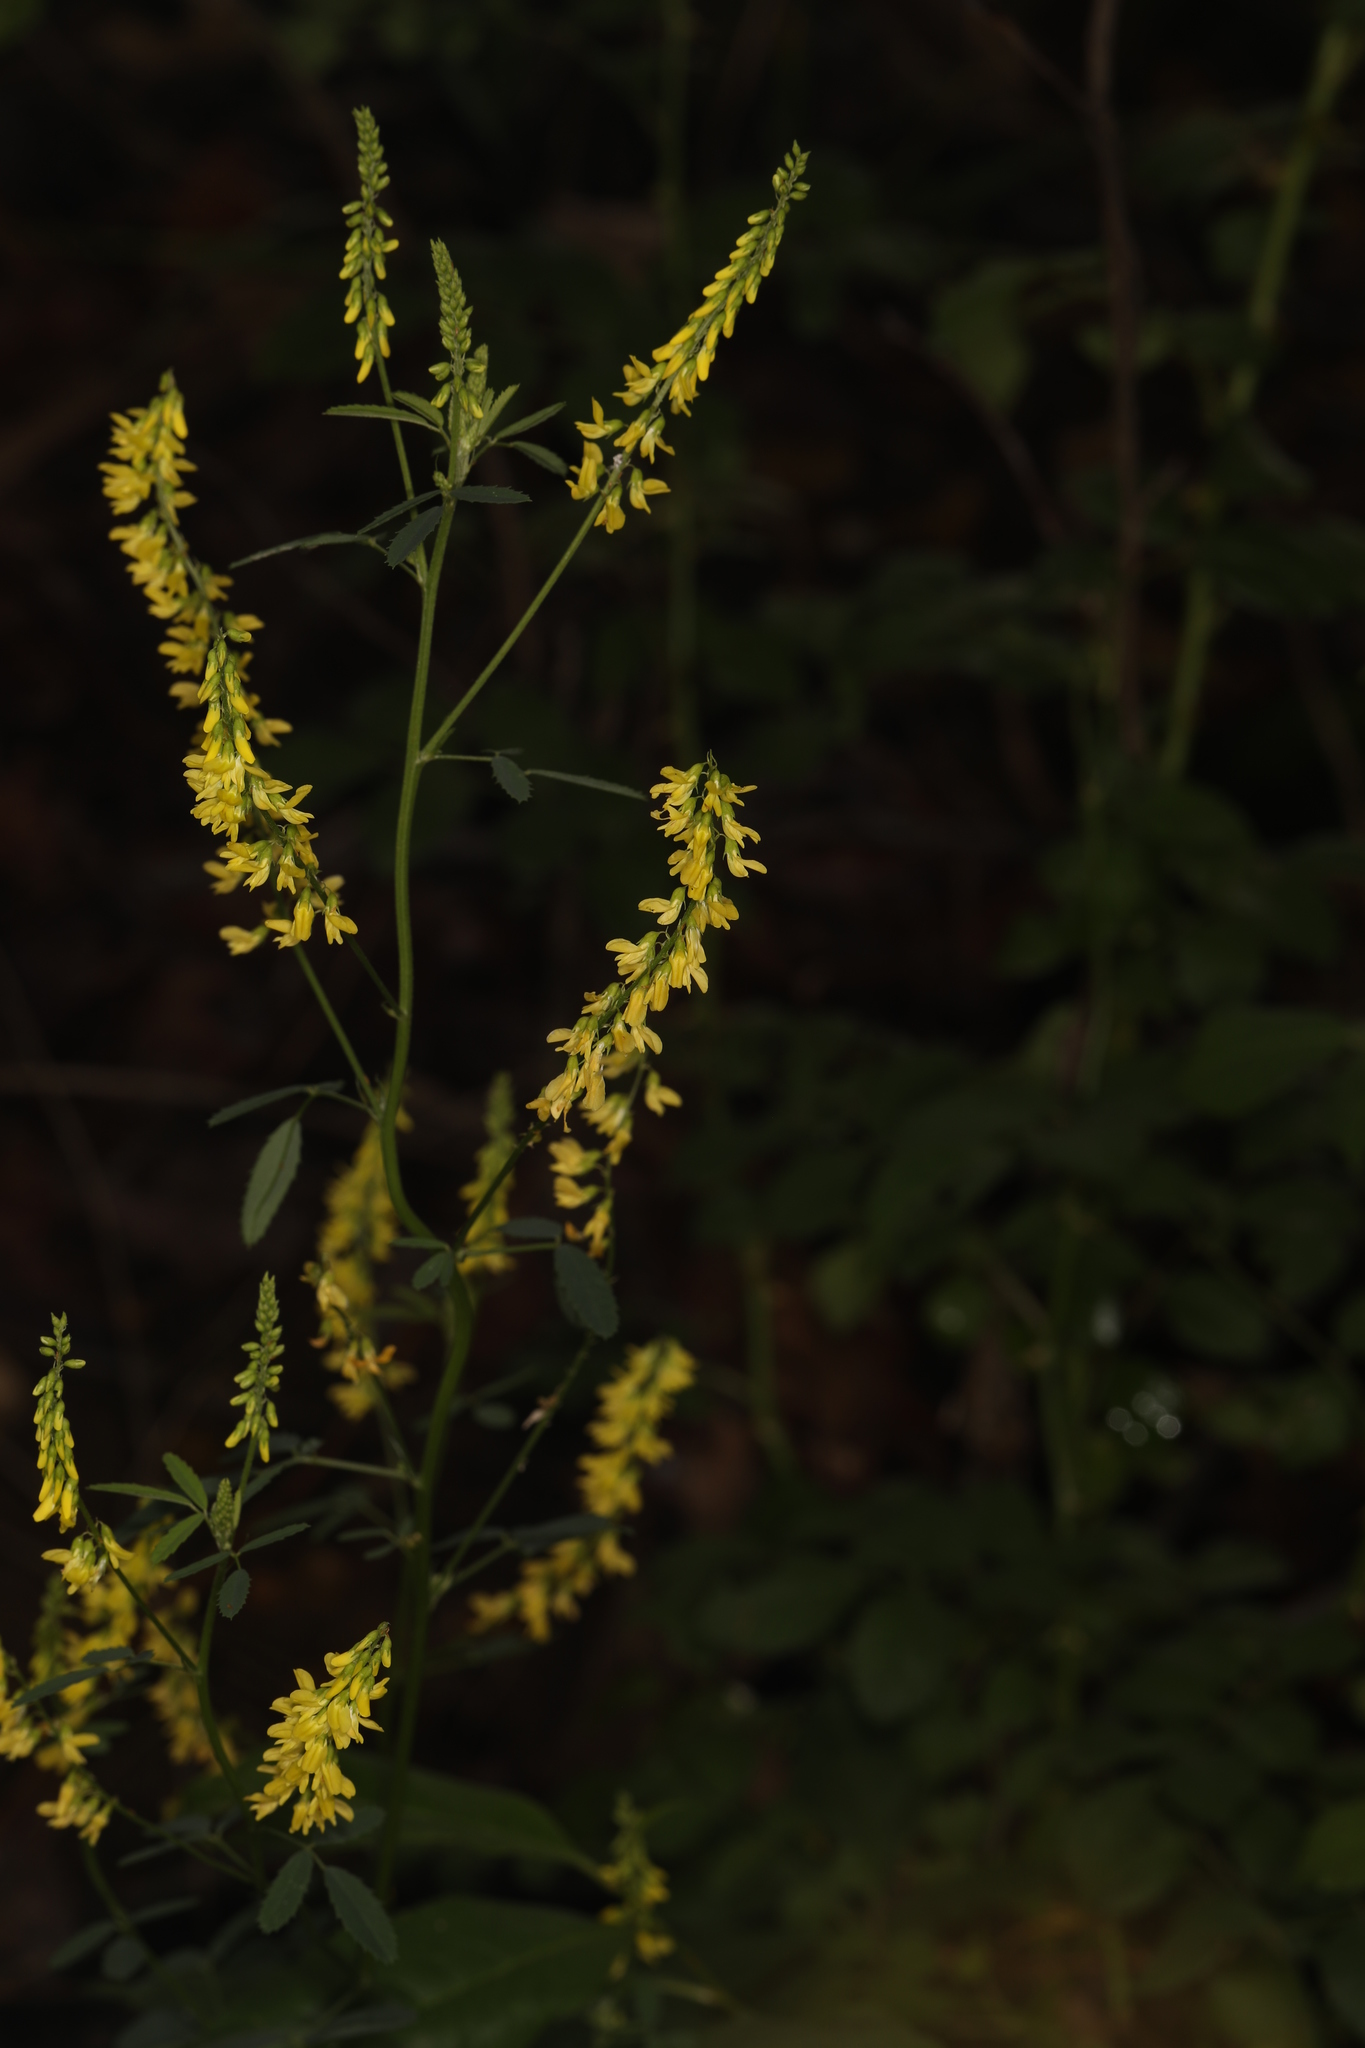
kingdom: Plantae
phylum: Tracheophyta
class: Magnoliopsida
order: Fabales
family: Fabaceae
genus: Melilotus
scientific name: Melilotus officinalis
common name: Sweetclover
